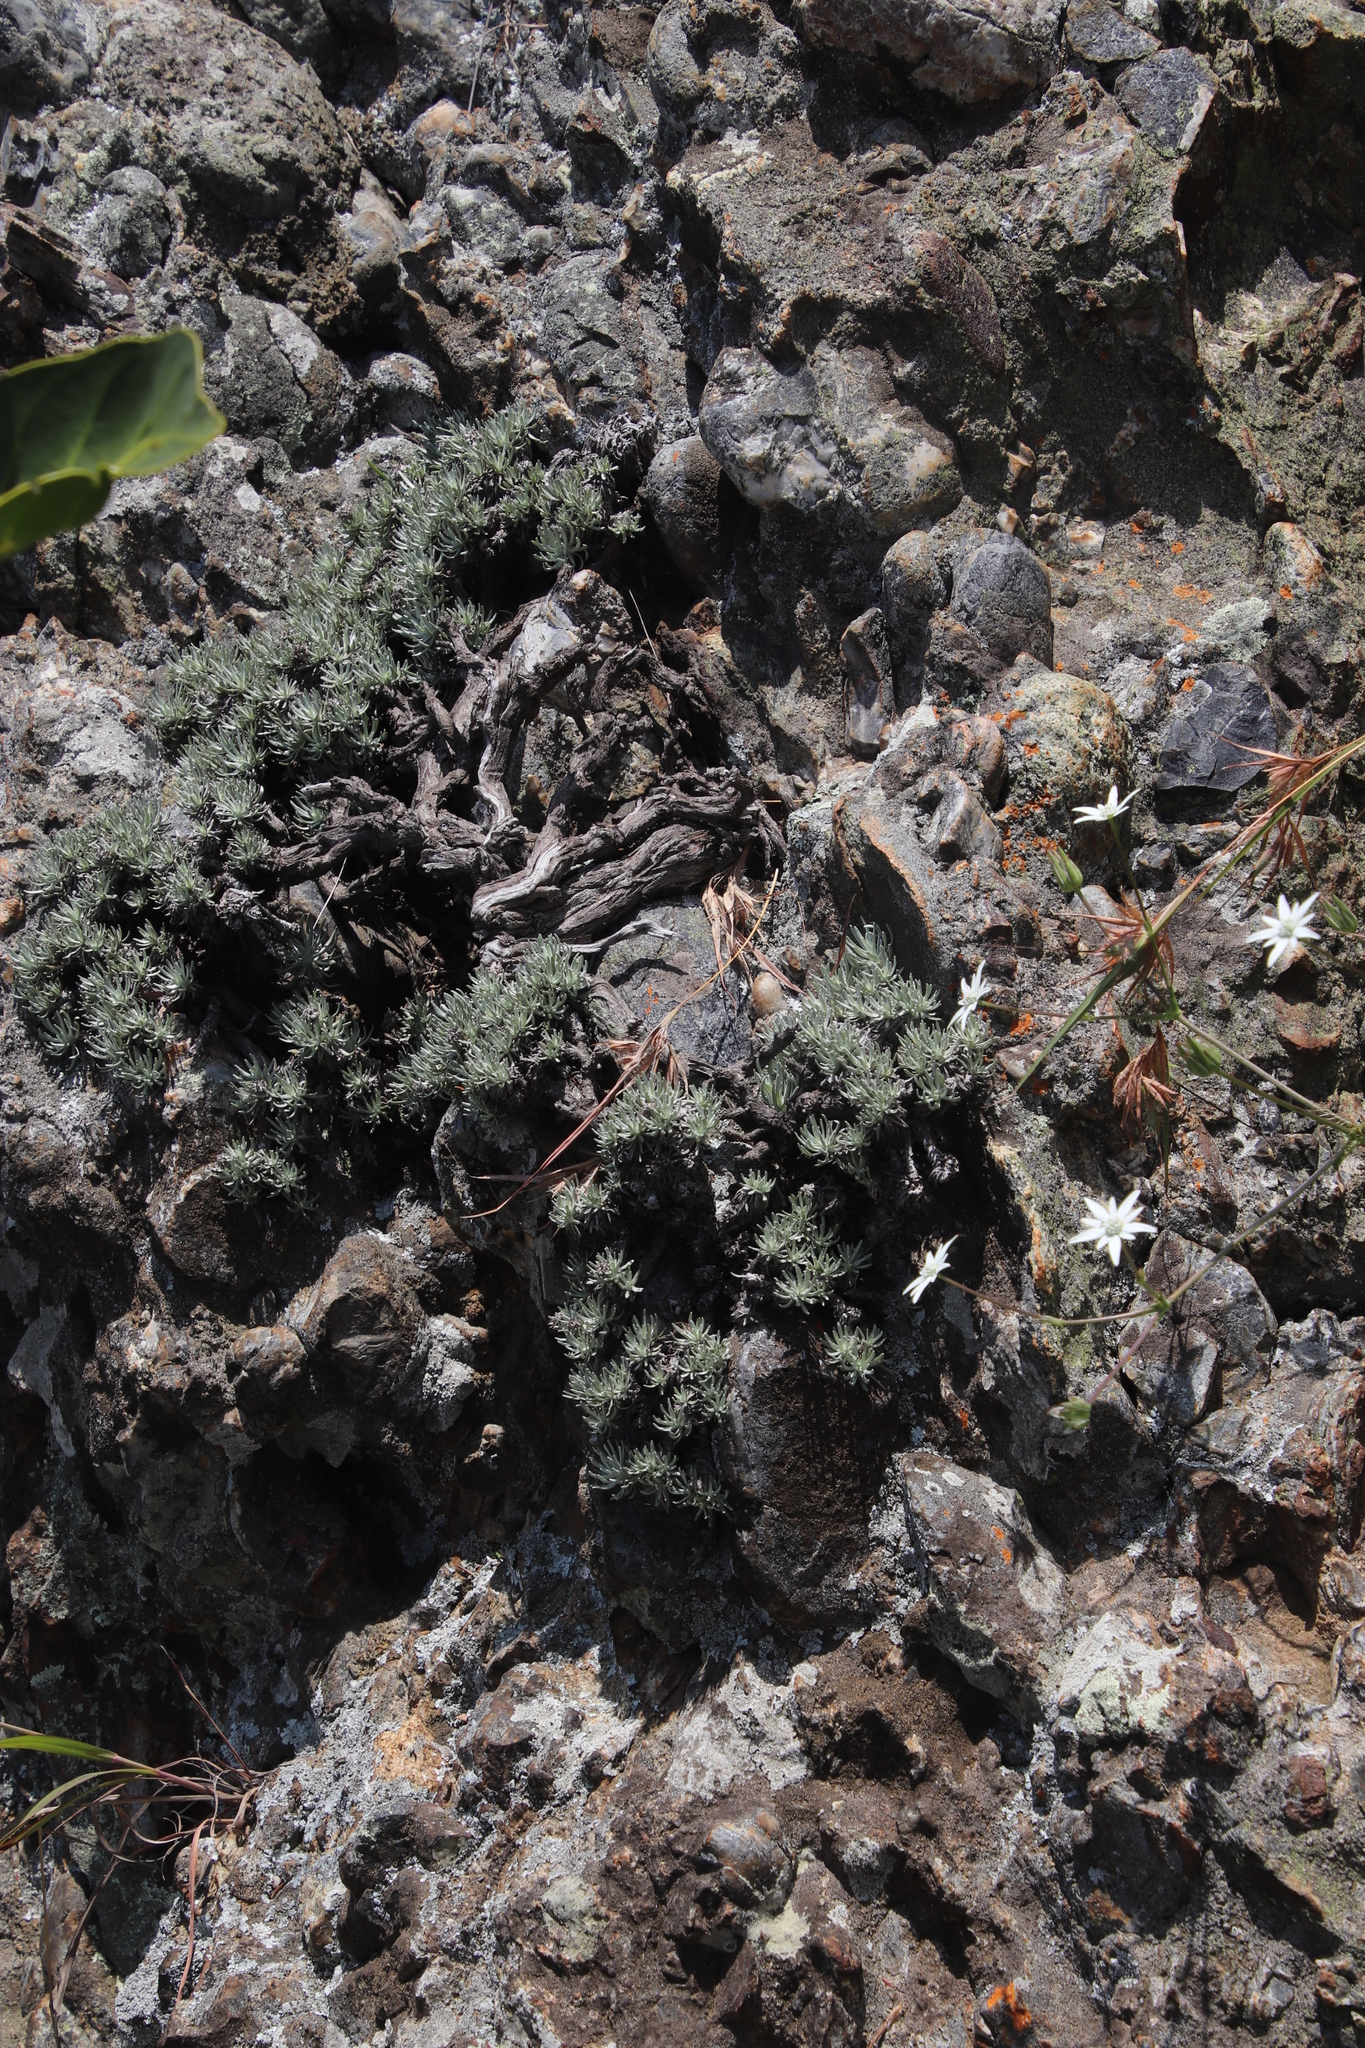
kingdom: Plantae
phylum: Tracheophyta
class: Magnoliopsida
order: Asterales
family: Asteraceae
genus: Helichrysum
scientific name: Helichrysum galpinii
